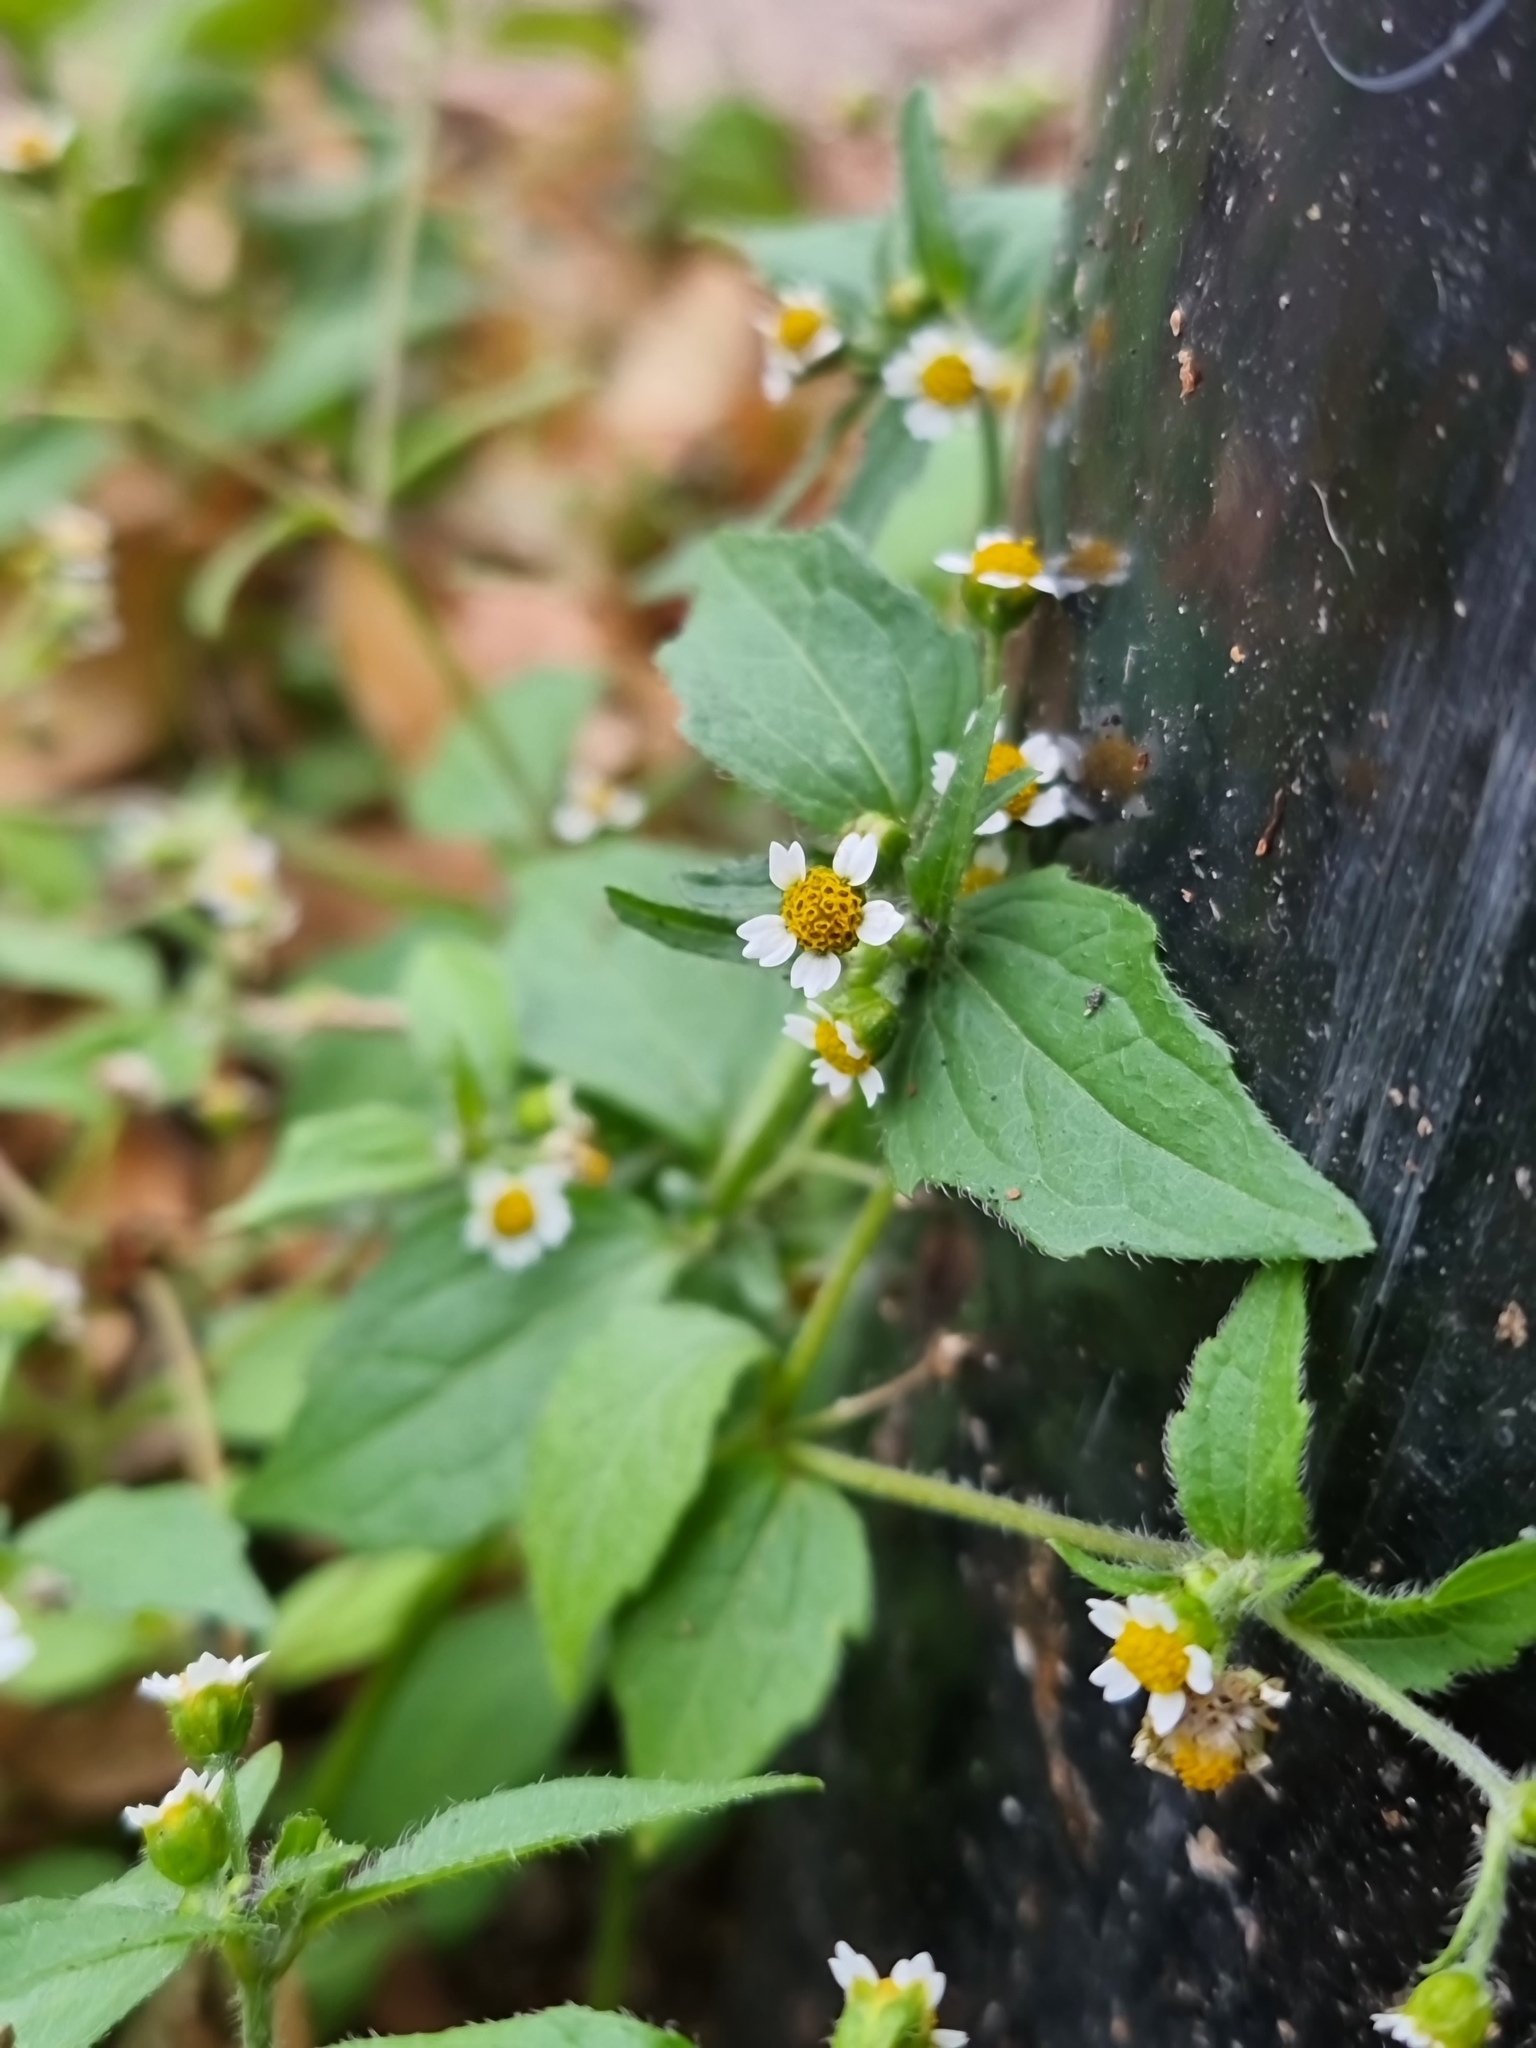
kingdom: Plantae
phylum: Tracheophyta
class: Magnoliopsida
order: Asterales
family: Asteraceae
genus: Galinsoga
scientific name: Galinsoga quadriradiata
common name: Shaggy soldier
